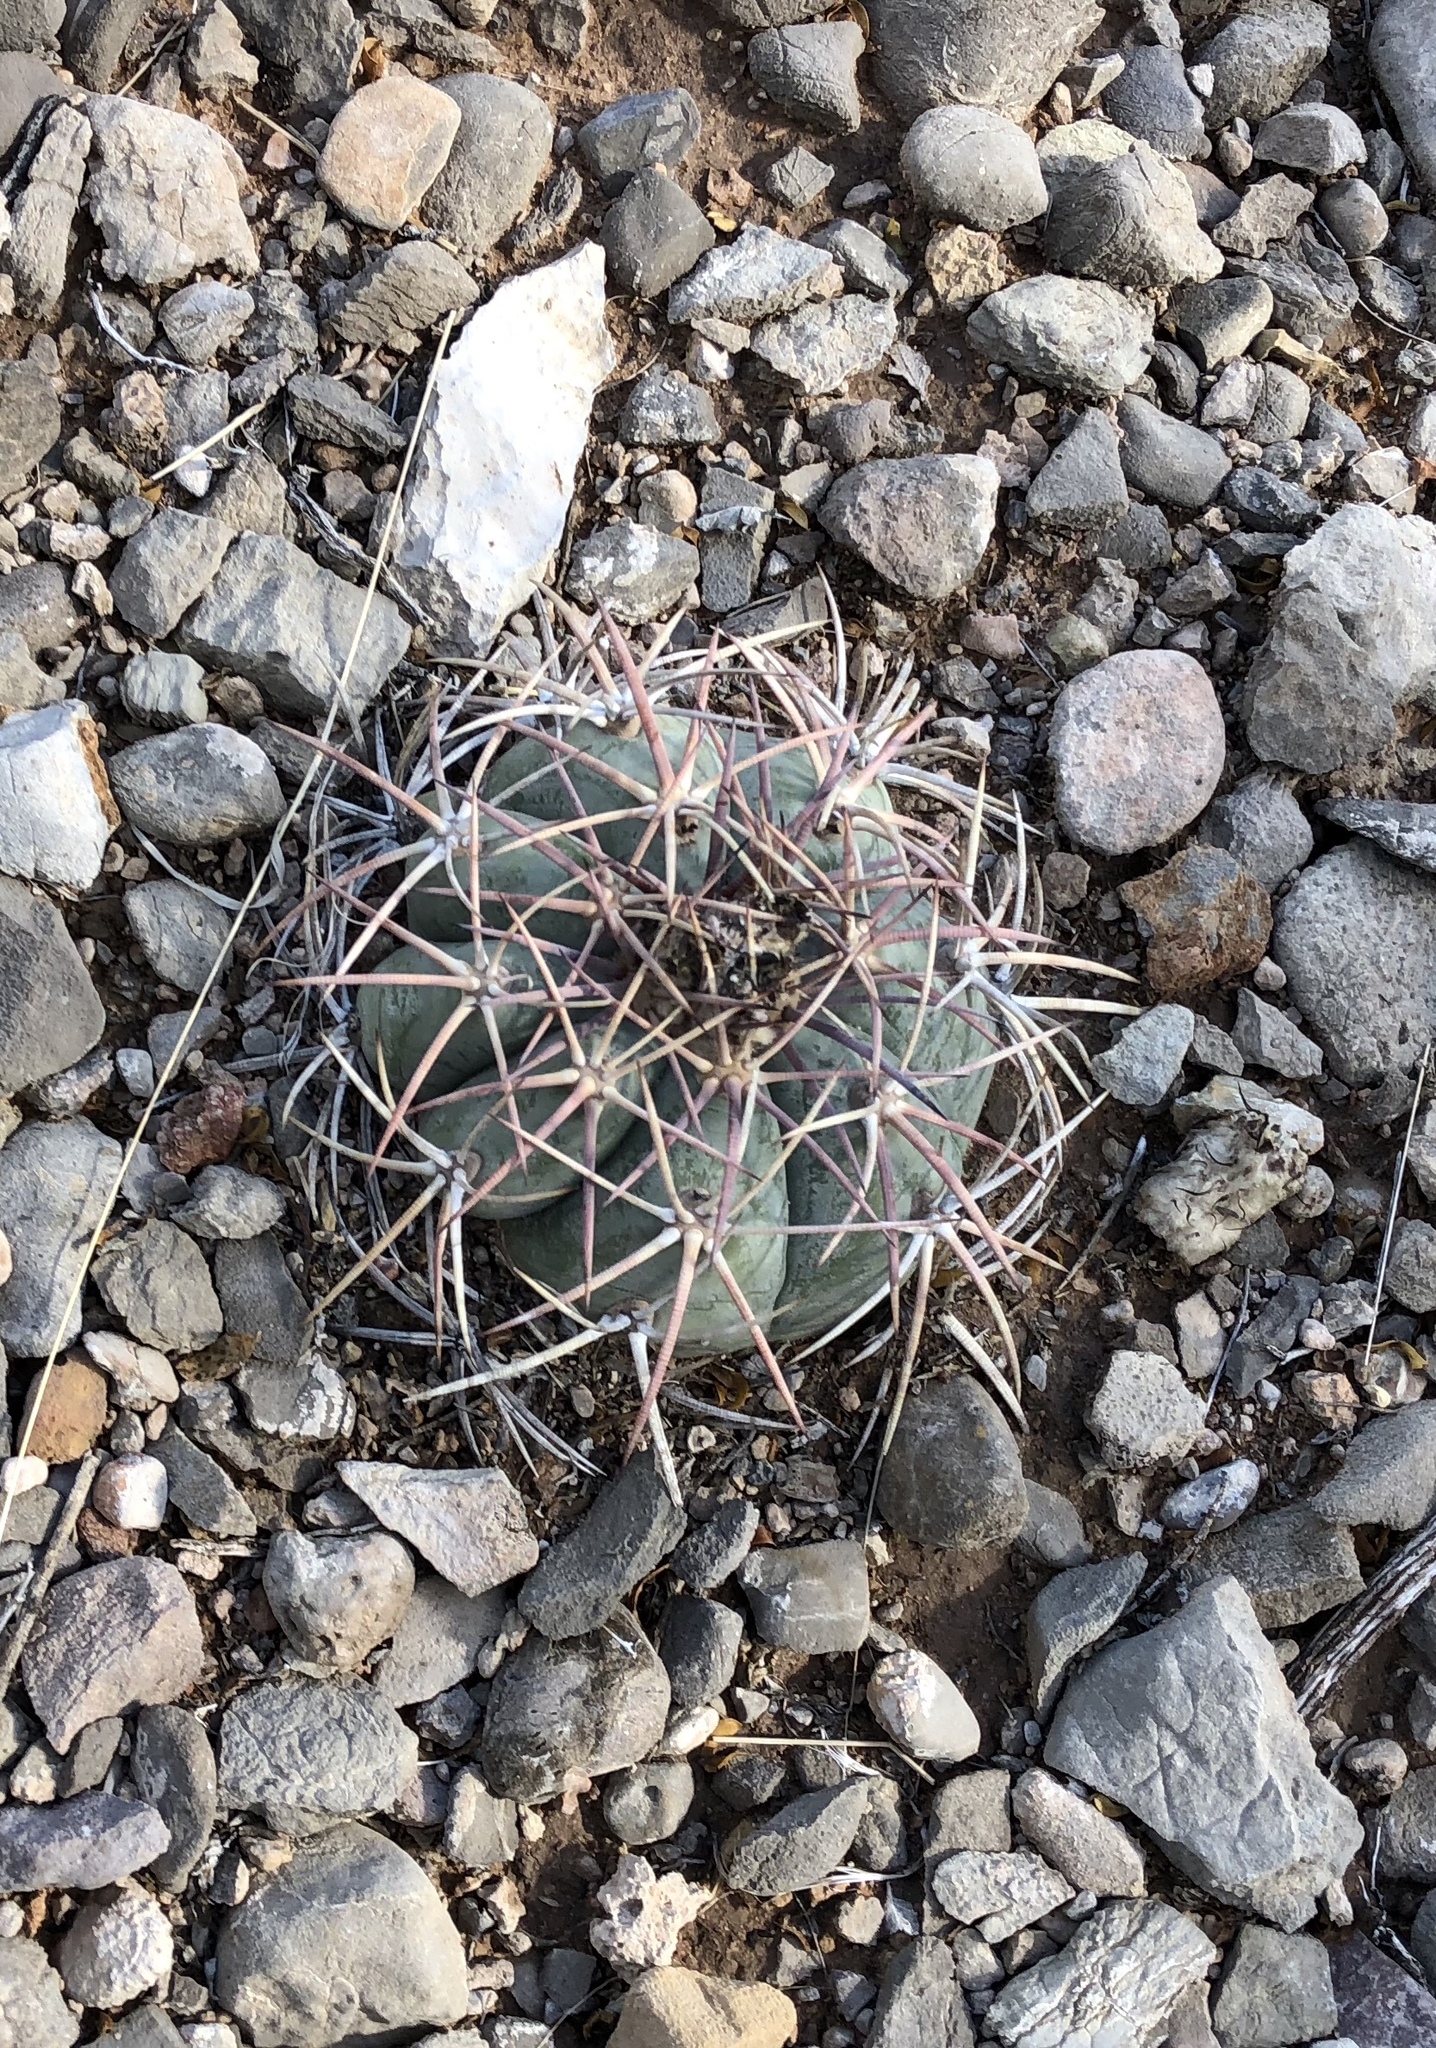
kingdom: Plantae
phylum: Tracheophyta
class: Magnoliopsida
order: Caryophyllales
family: Cactaceae
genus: Echinocactus
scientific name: Echinocactus horizonthalonius
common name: Devilshead
